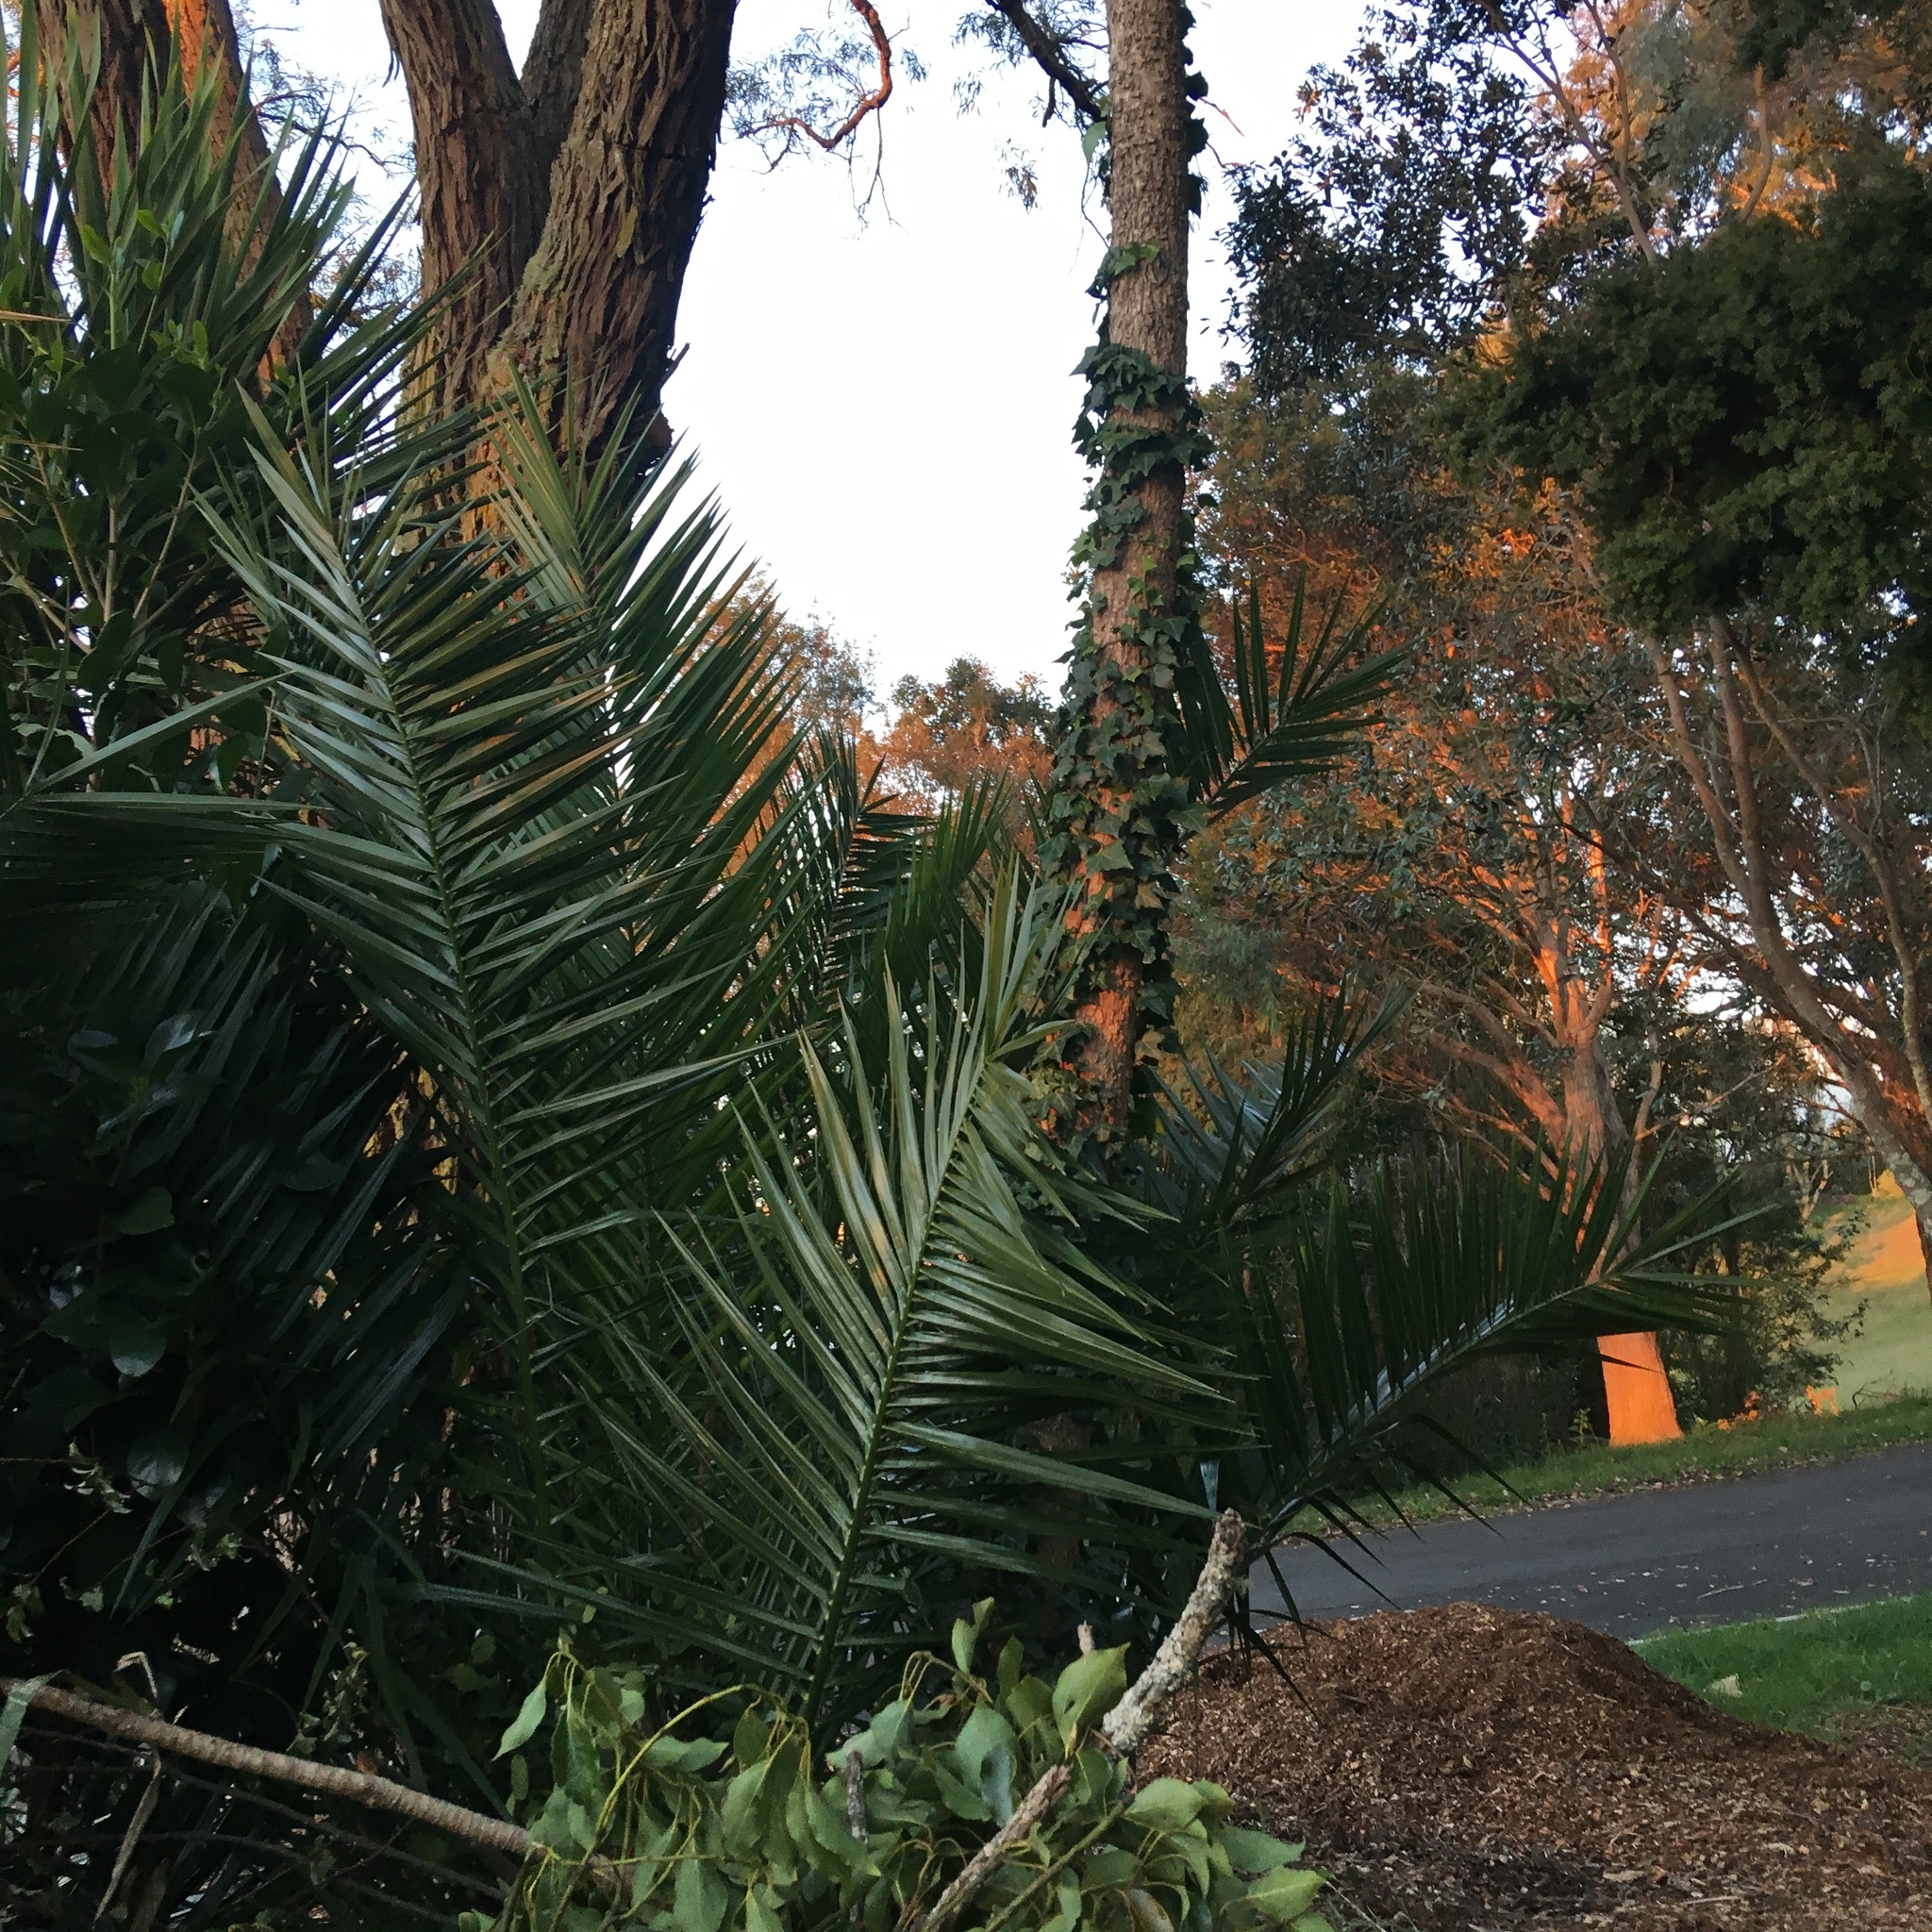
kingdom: Plantae
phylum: Tracheophyta
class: Liliopsida
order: Arecales
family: Arecaceae
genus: Phoenix
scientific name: Phoenix canariensis
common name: Canary island date palm
